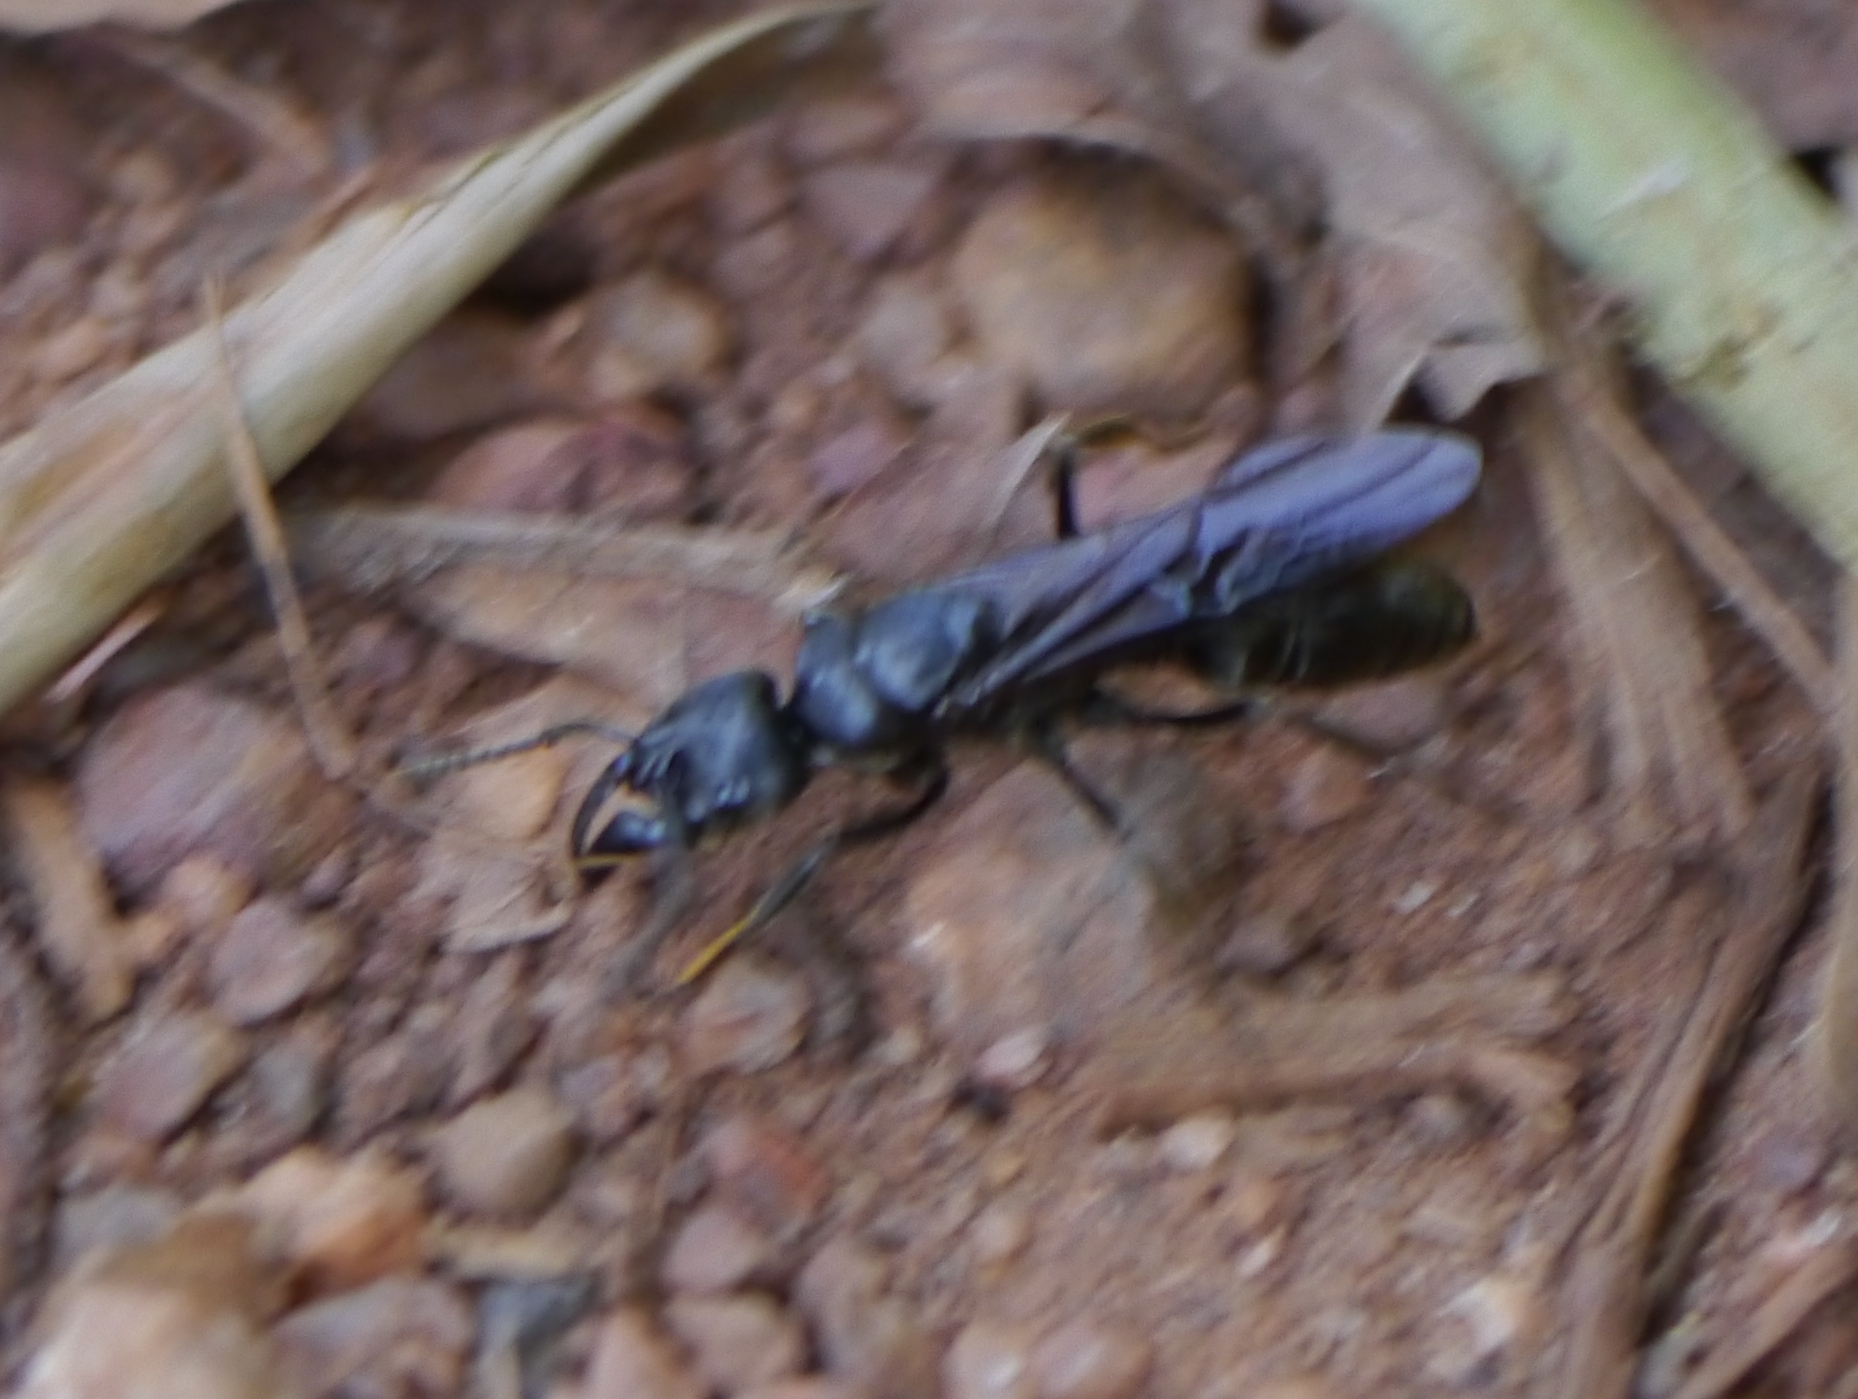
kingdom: Animalia
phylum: Arthropoda
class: Insecta
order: Hymenoptera
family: Formicidae
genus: Paltothyreus
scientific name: Paltothyreus tarsatus
